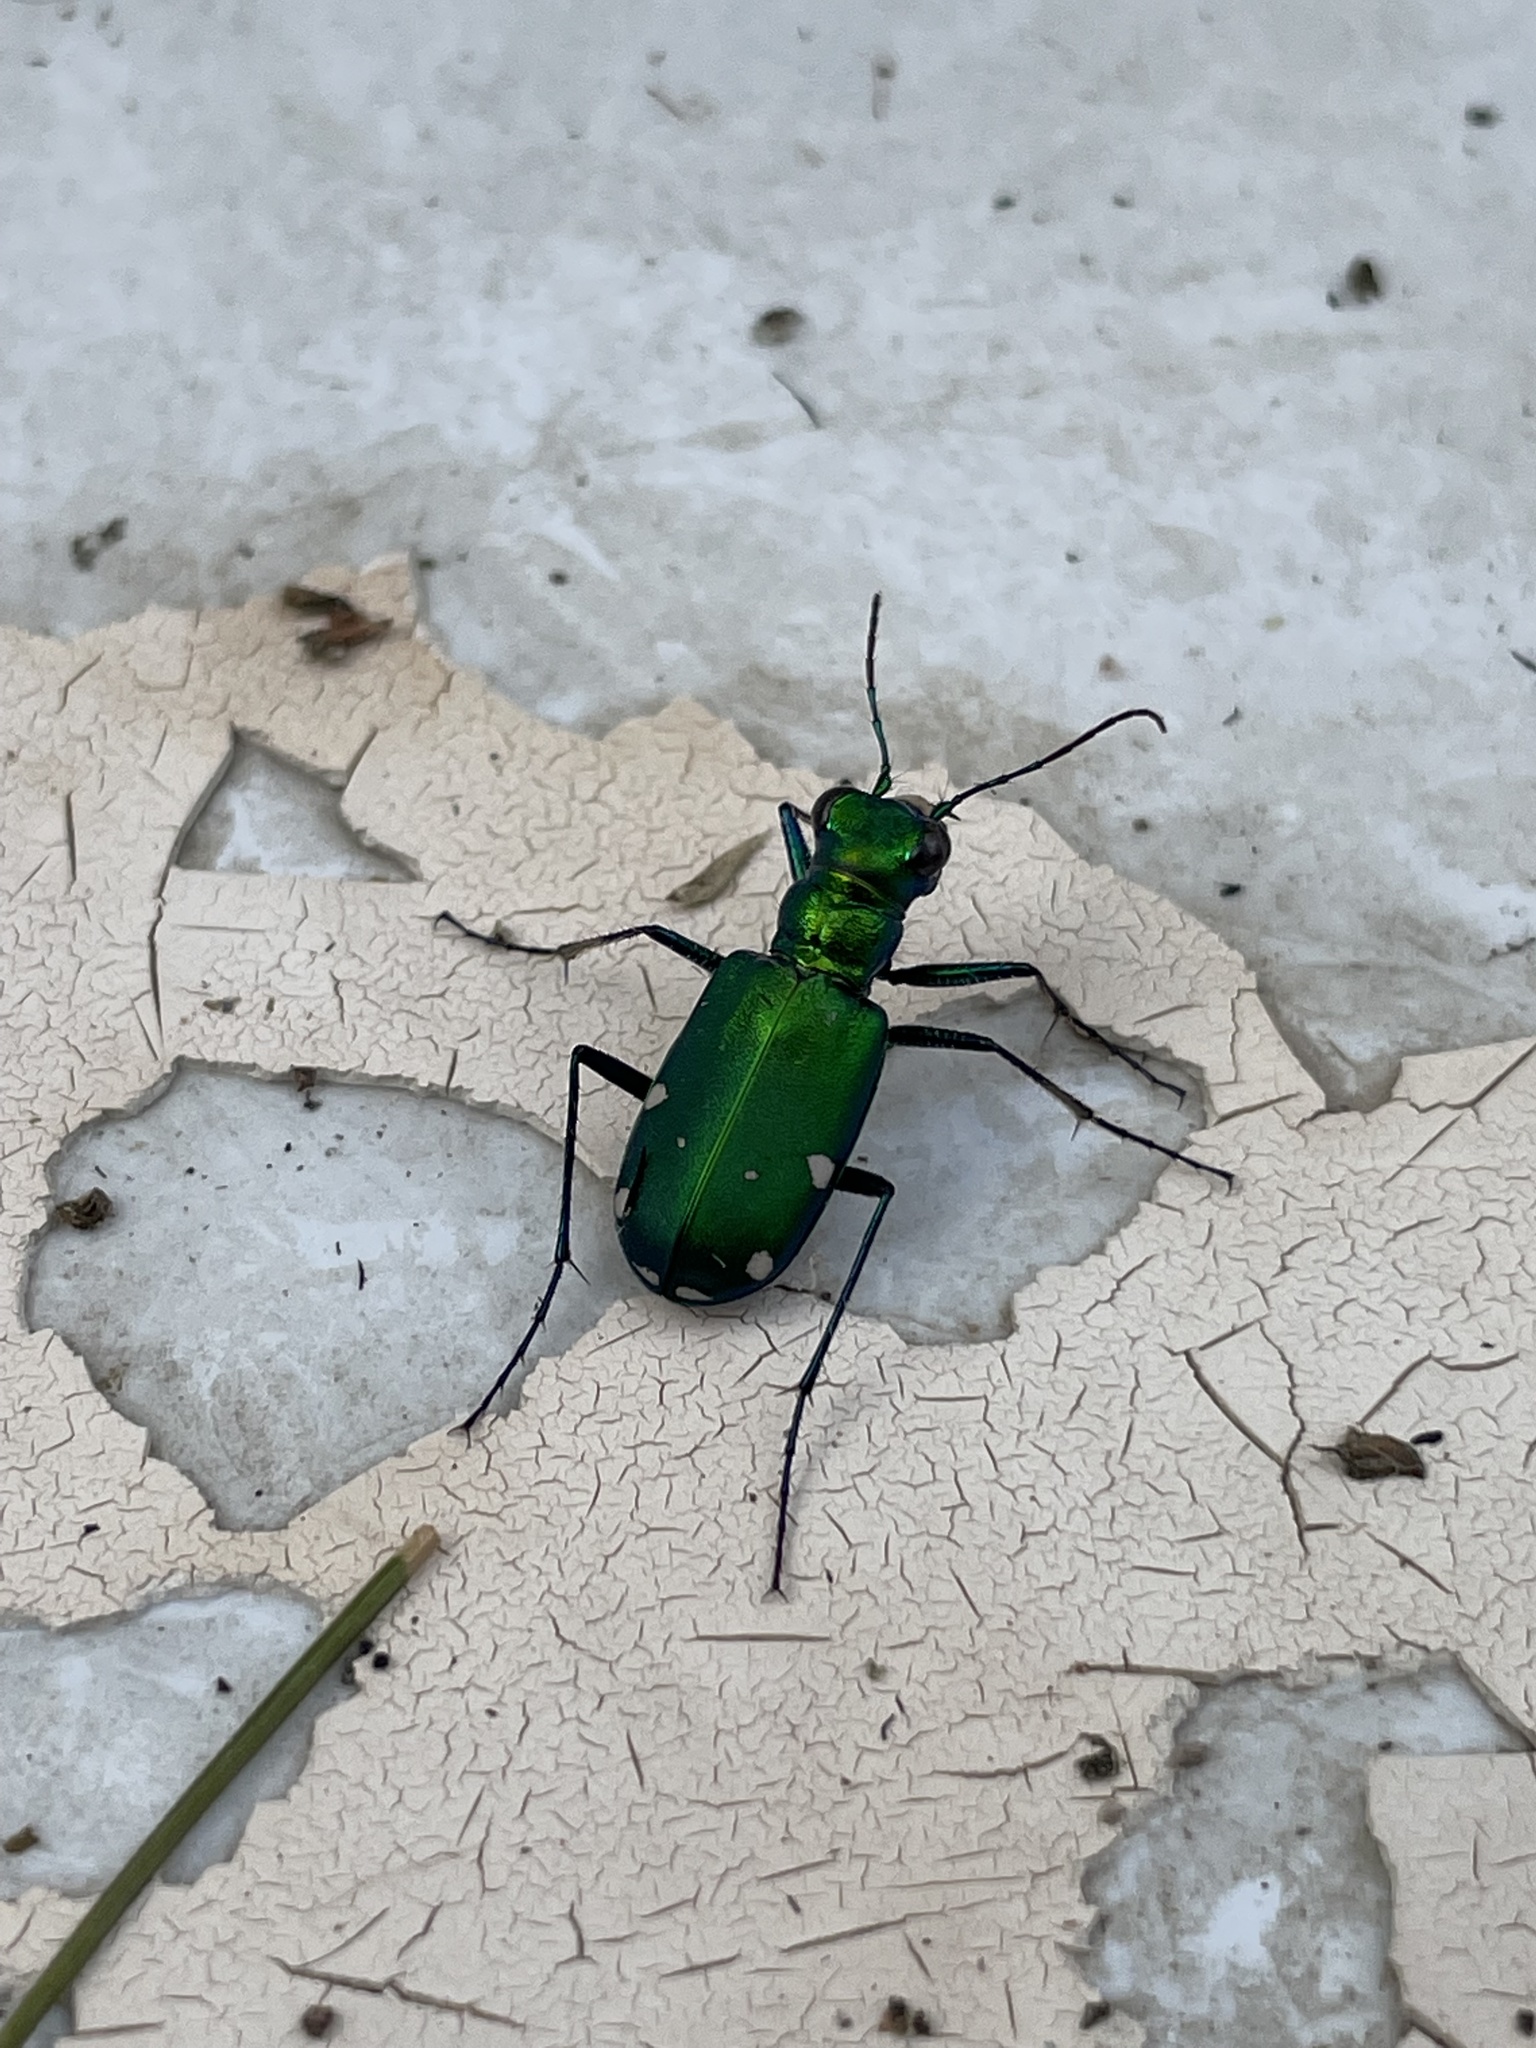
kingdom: Animalia
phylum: Arthropoda
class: Insecta
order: Coleoptera
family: Carabidae
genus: Cicindela
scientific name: Cicindela sexguttata
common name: Six-spotted tiger beetle
